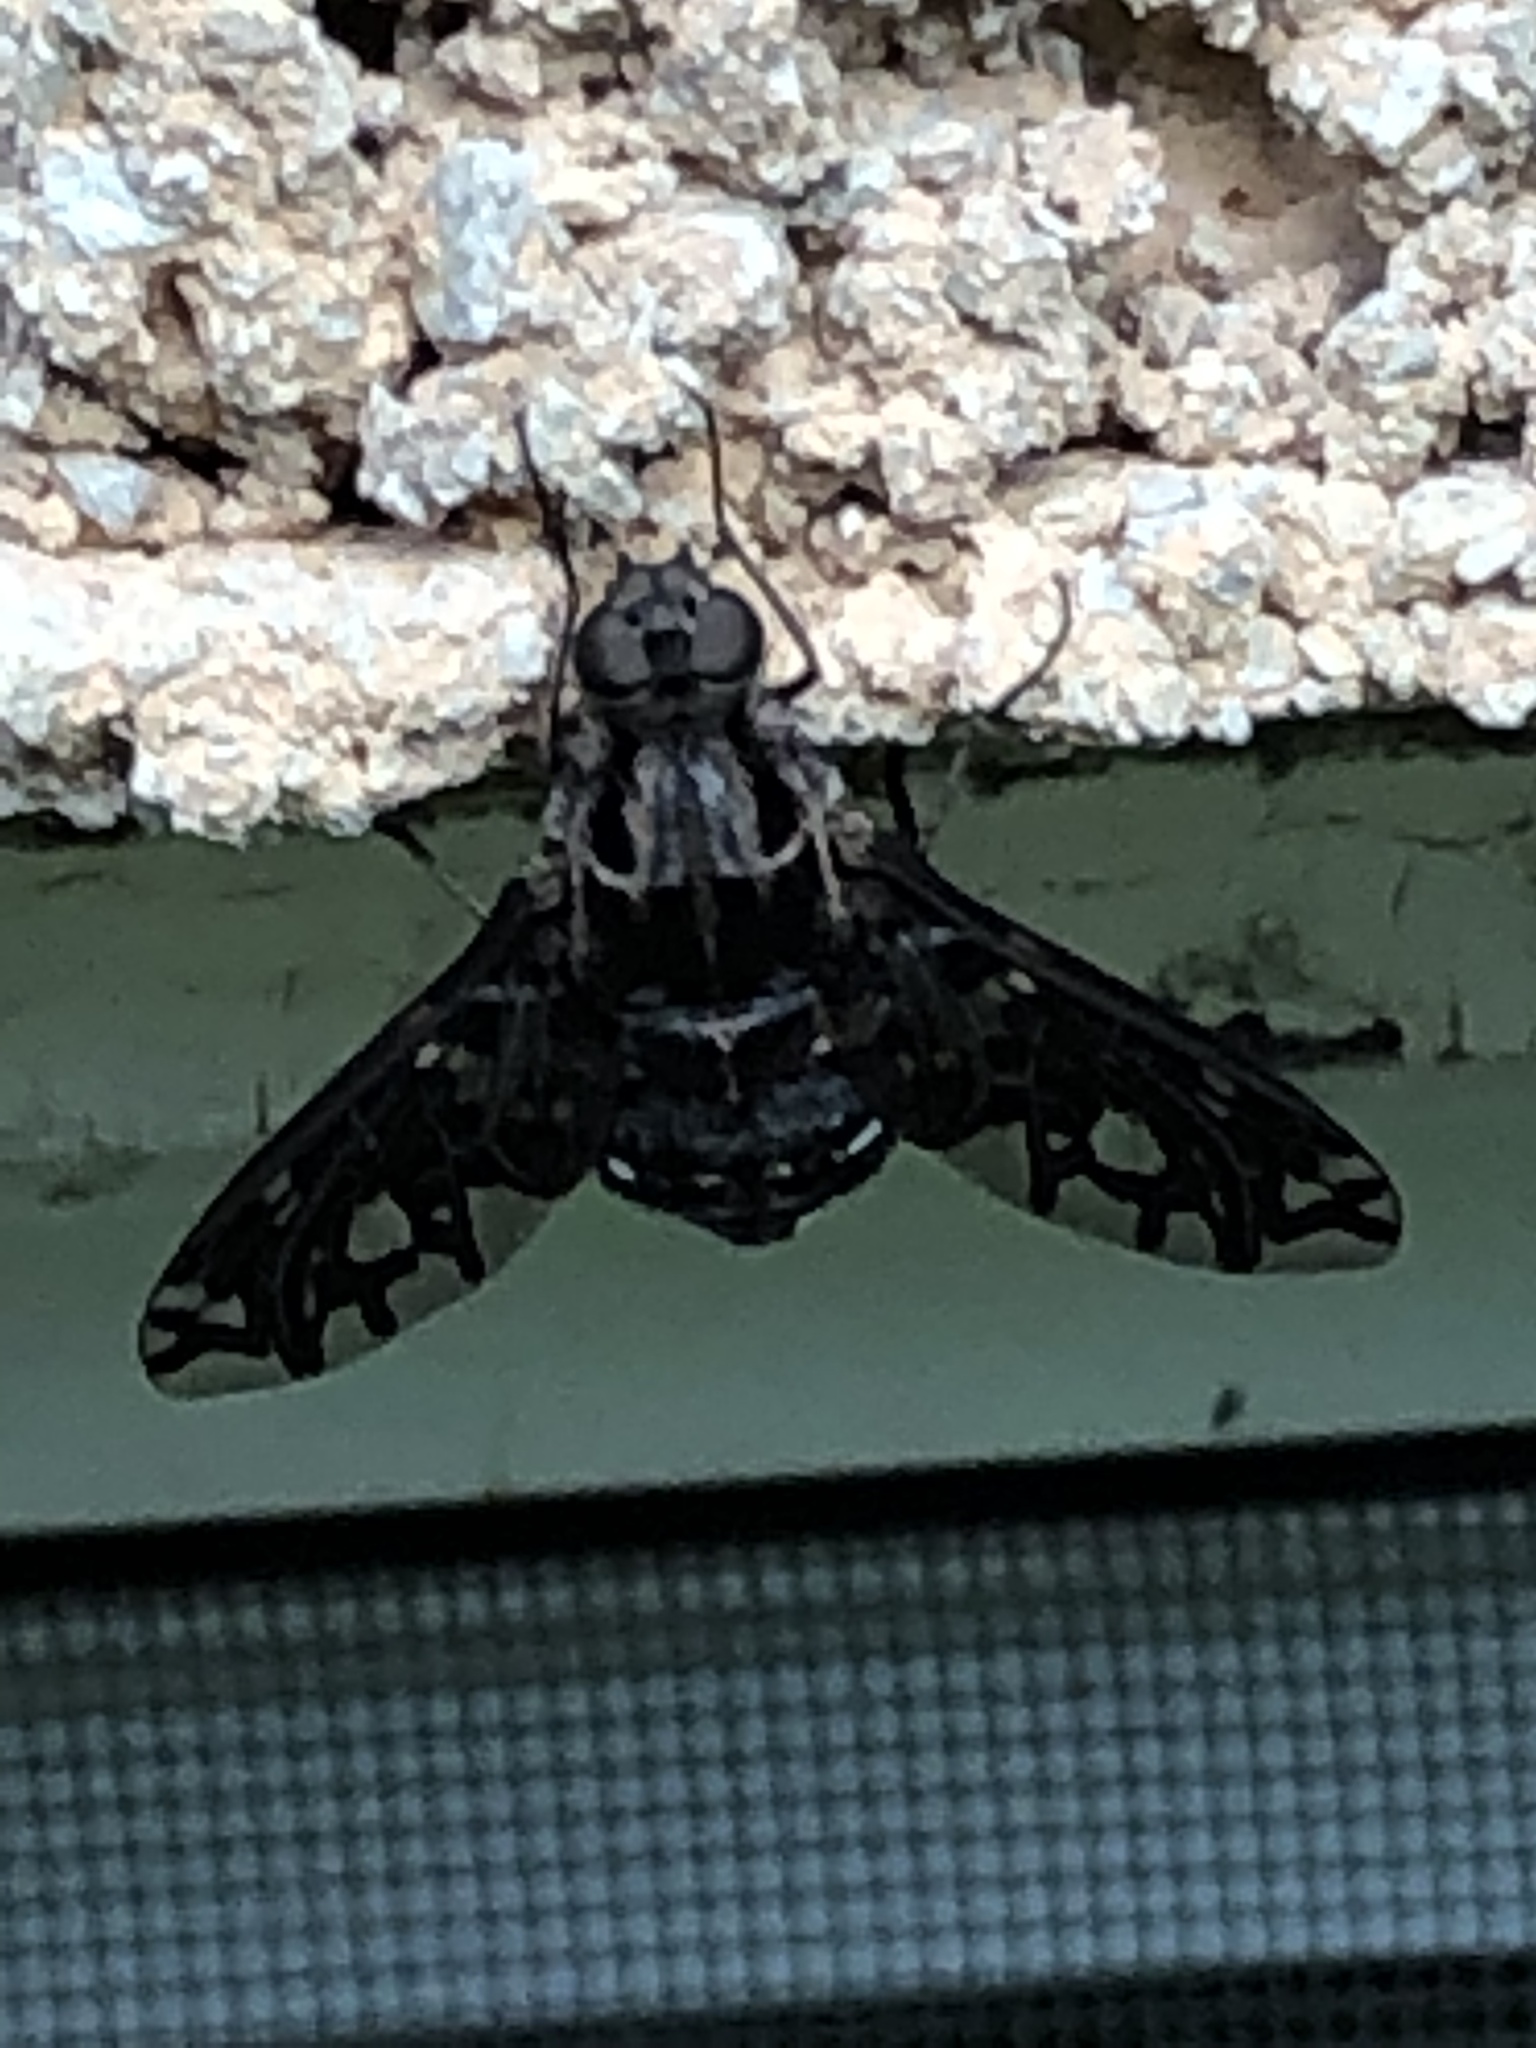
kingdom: Animalia
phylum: Arthropoda
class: Insecta
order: Diptera
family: Bombyliidae
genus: Xenox
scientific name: Xenox tigrinus
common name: Tiger bee fly
